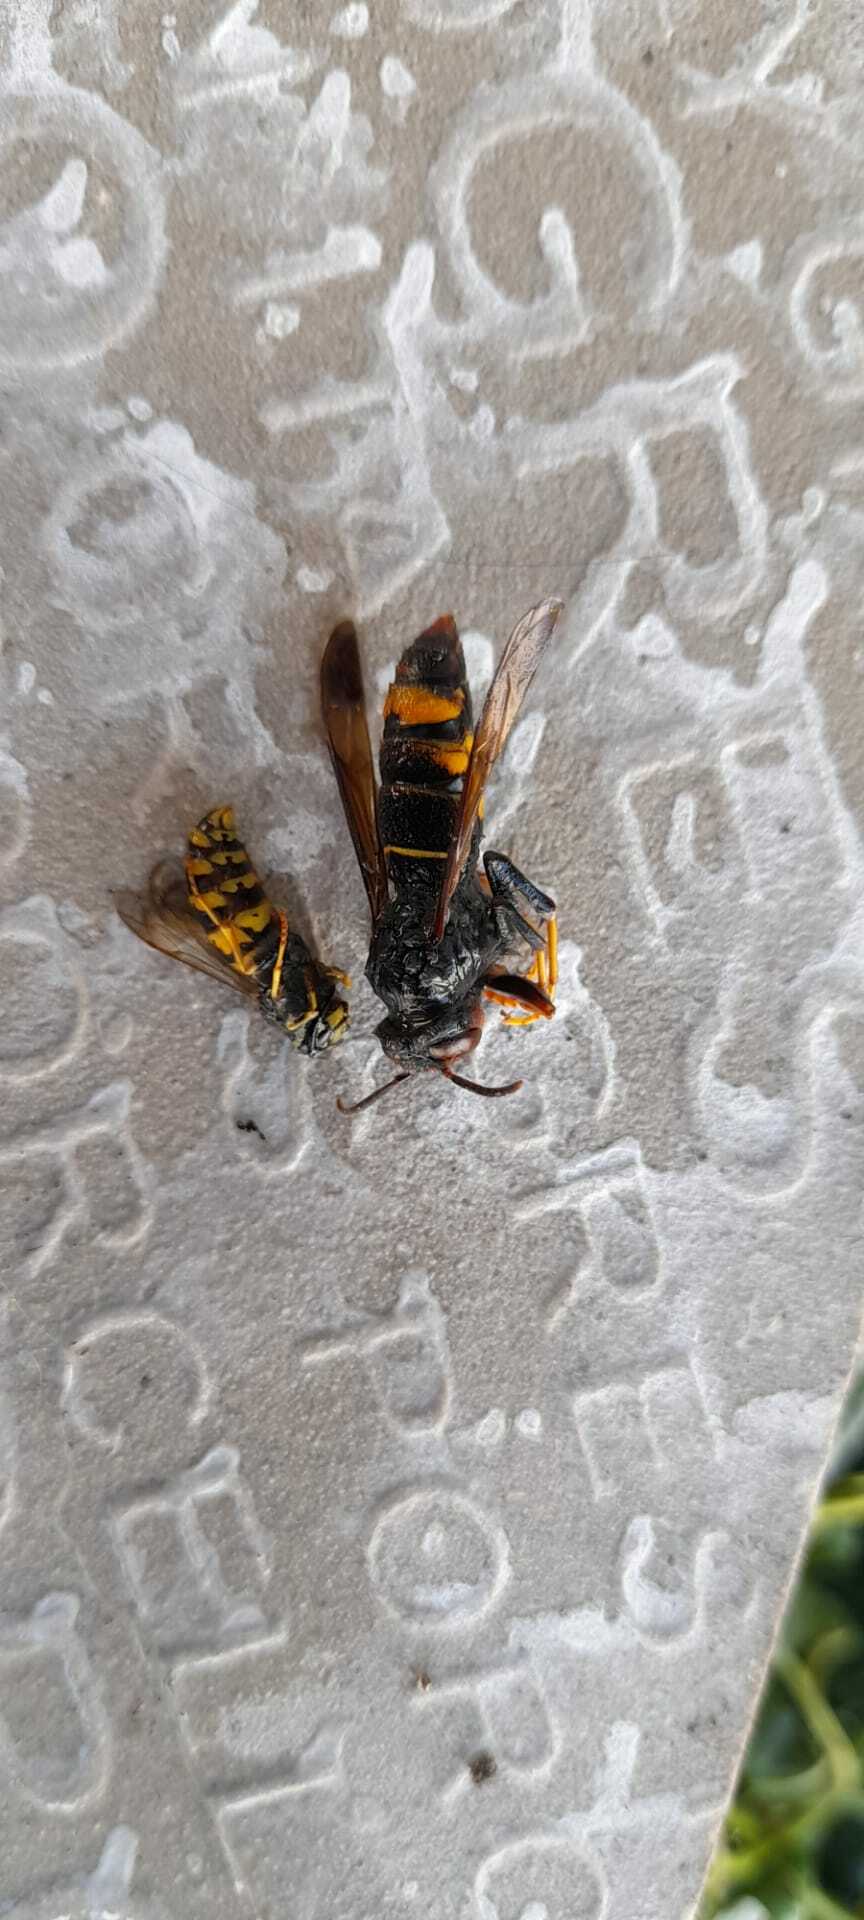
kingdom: Animalia
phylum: Arthropoda
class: Insecta
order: Hymenoptera
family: Vespidae
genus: Vespa
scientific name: Vespa velutina
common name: Asian hornet
